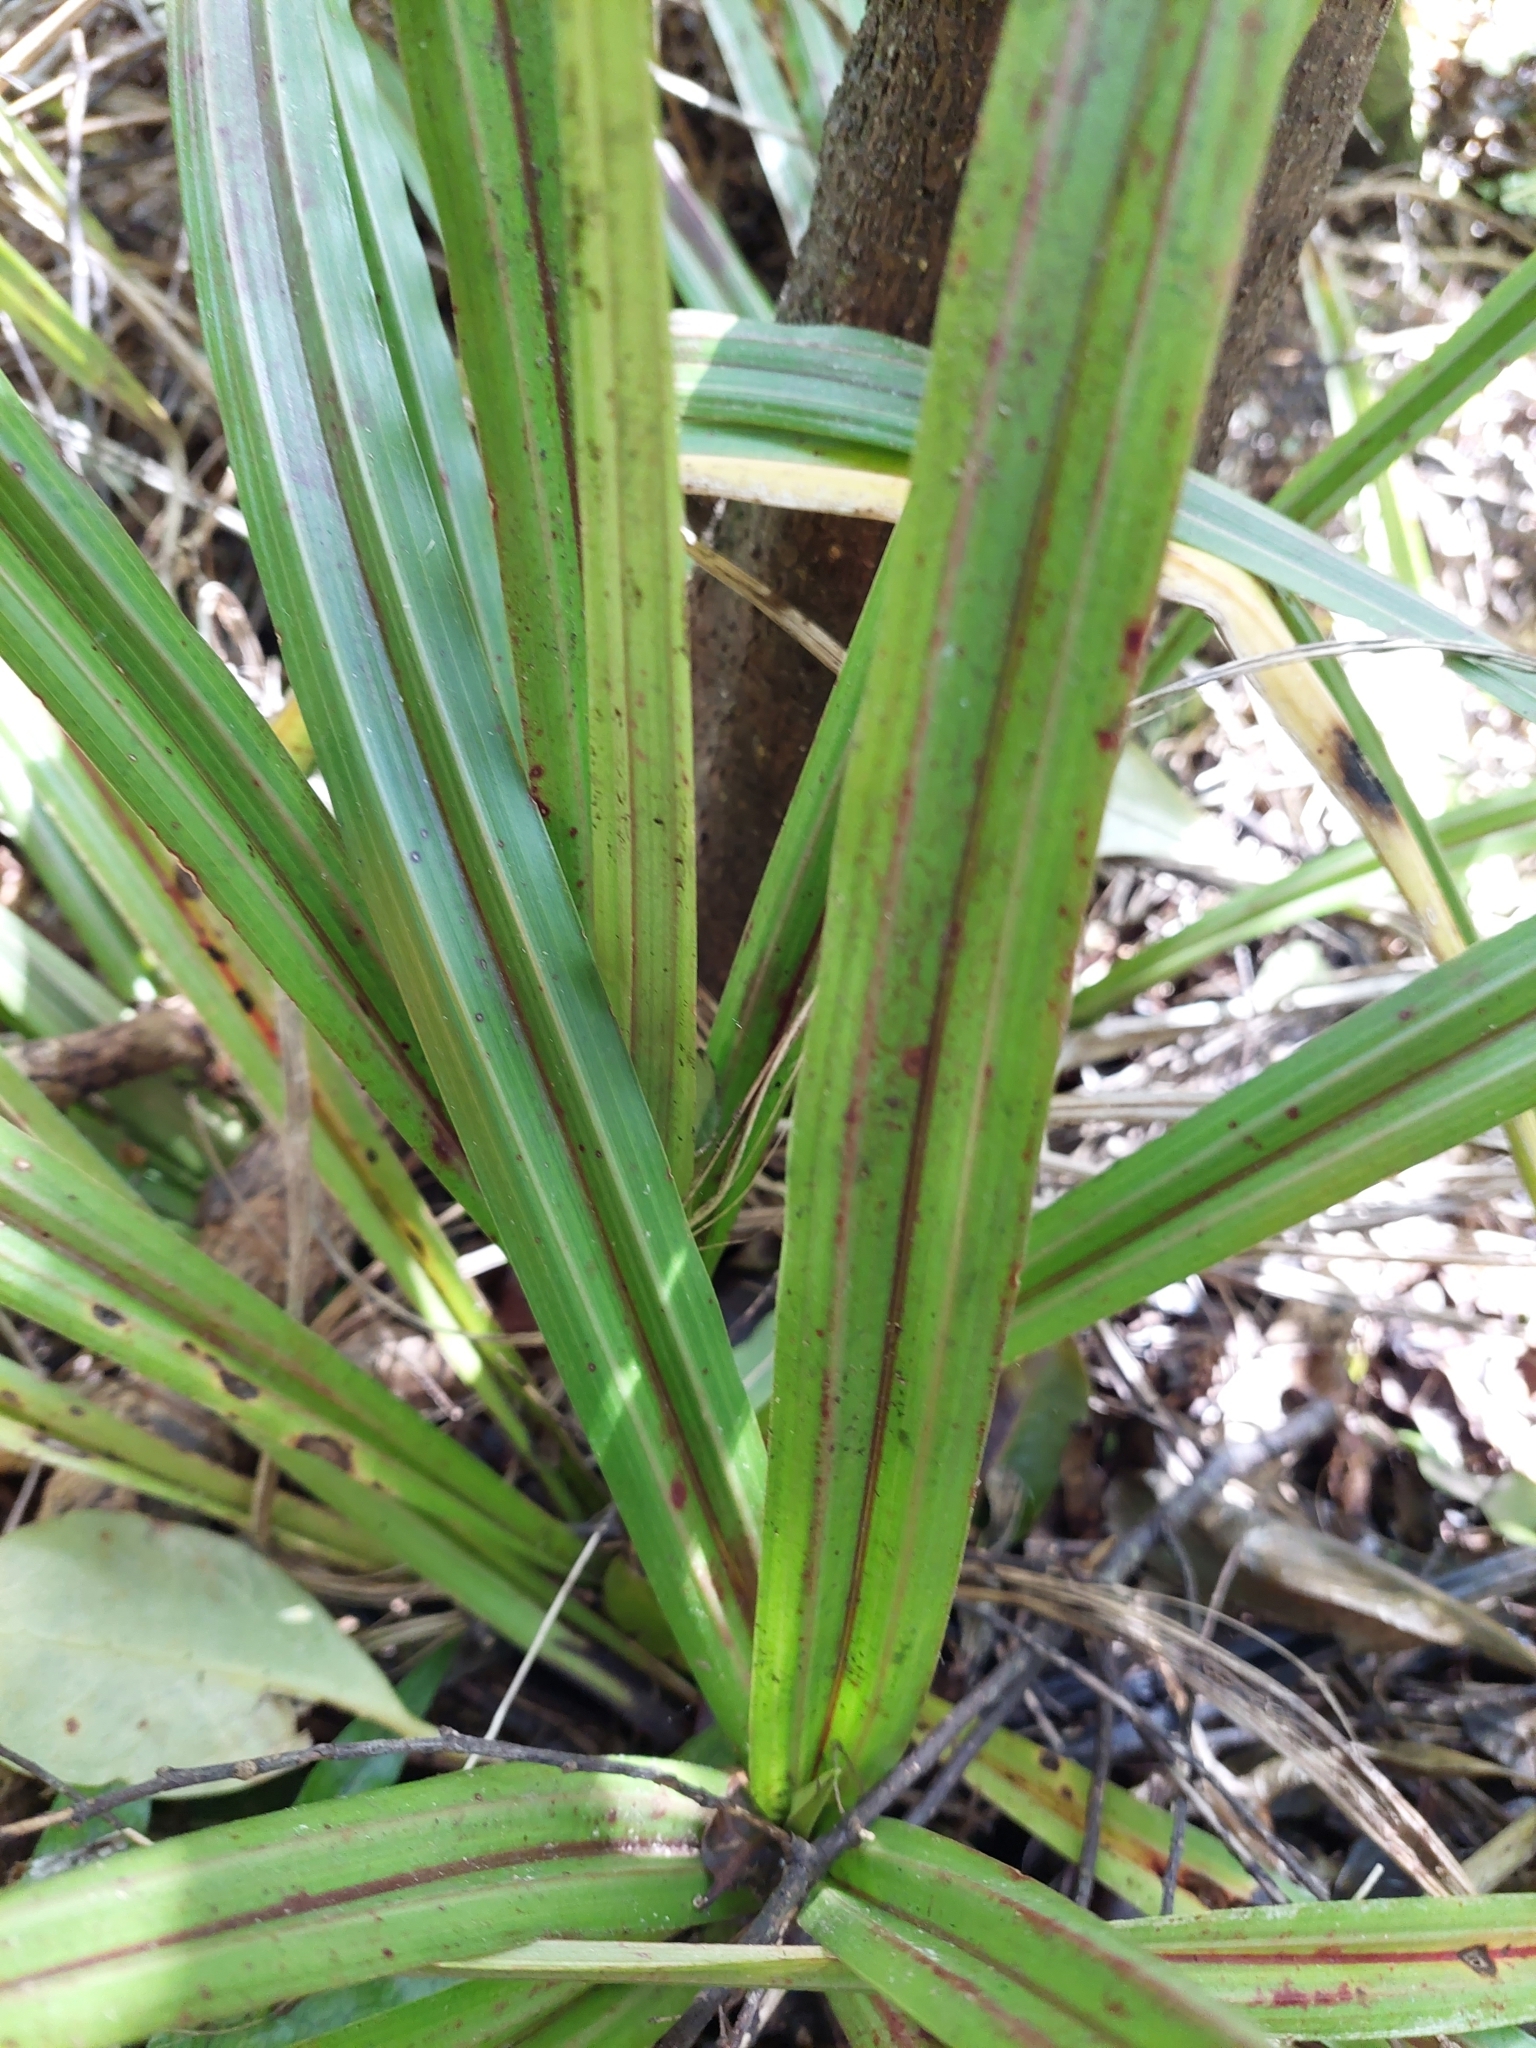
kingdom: Plantae
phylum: Tracheophyta
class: Liliopsida
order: Asparagales
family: Asteliaceae
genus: Astelia
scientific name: Astelia fragrans
